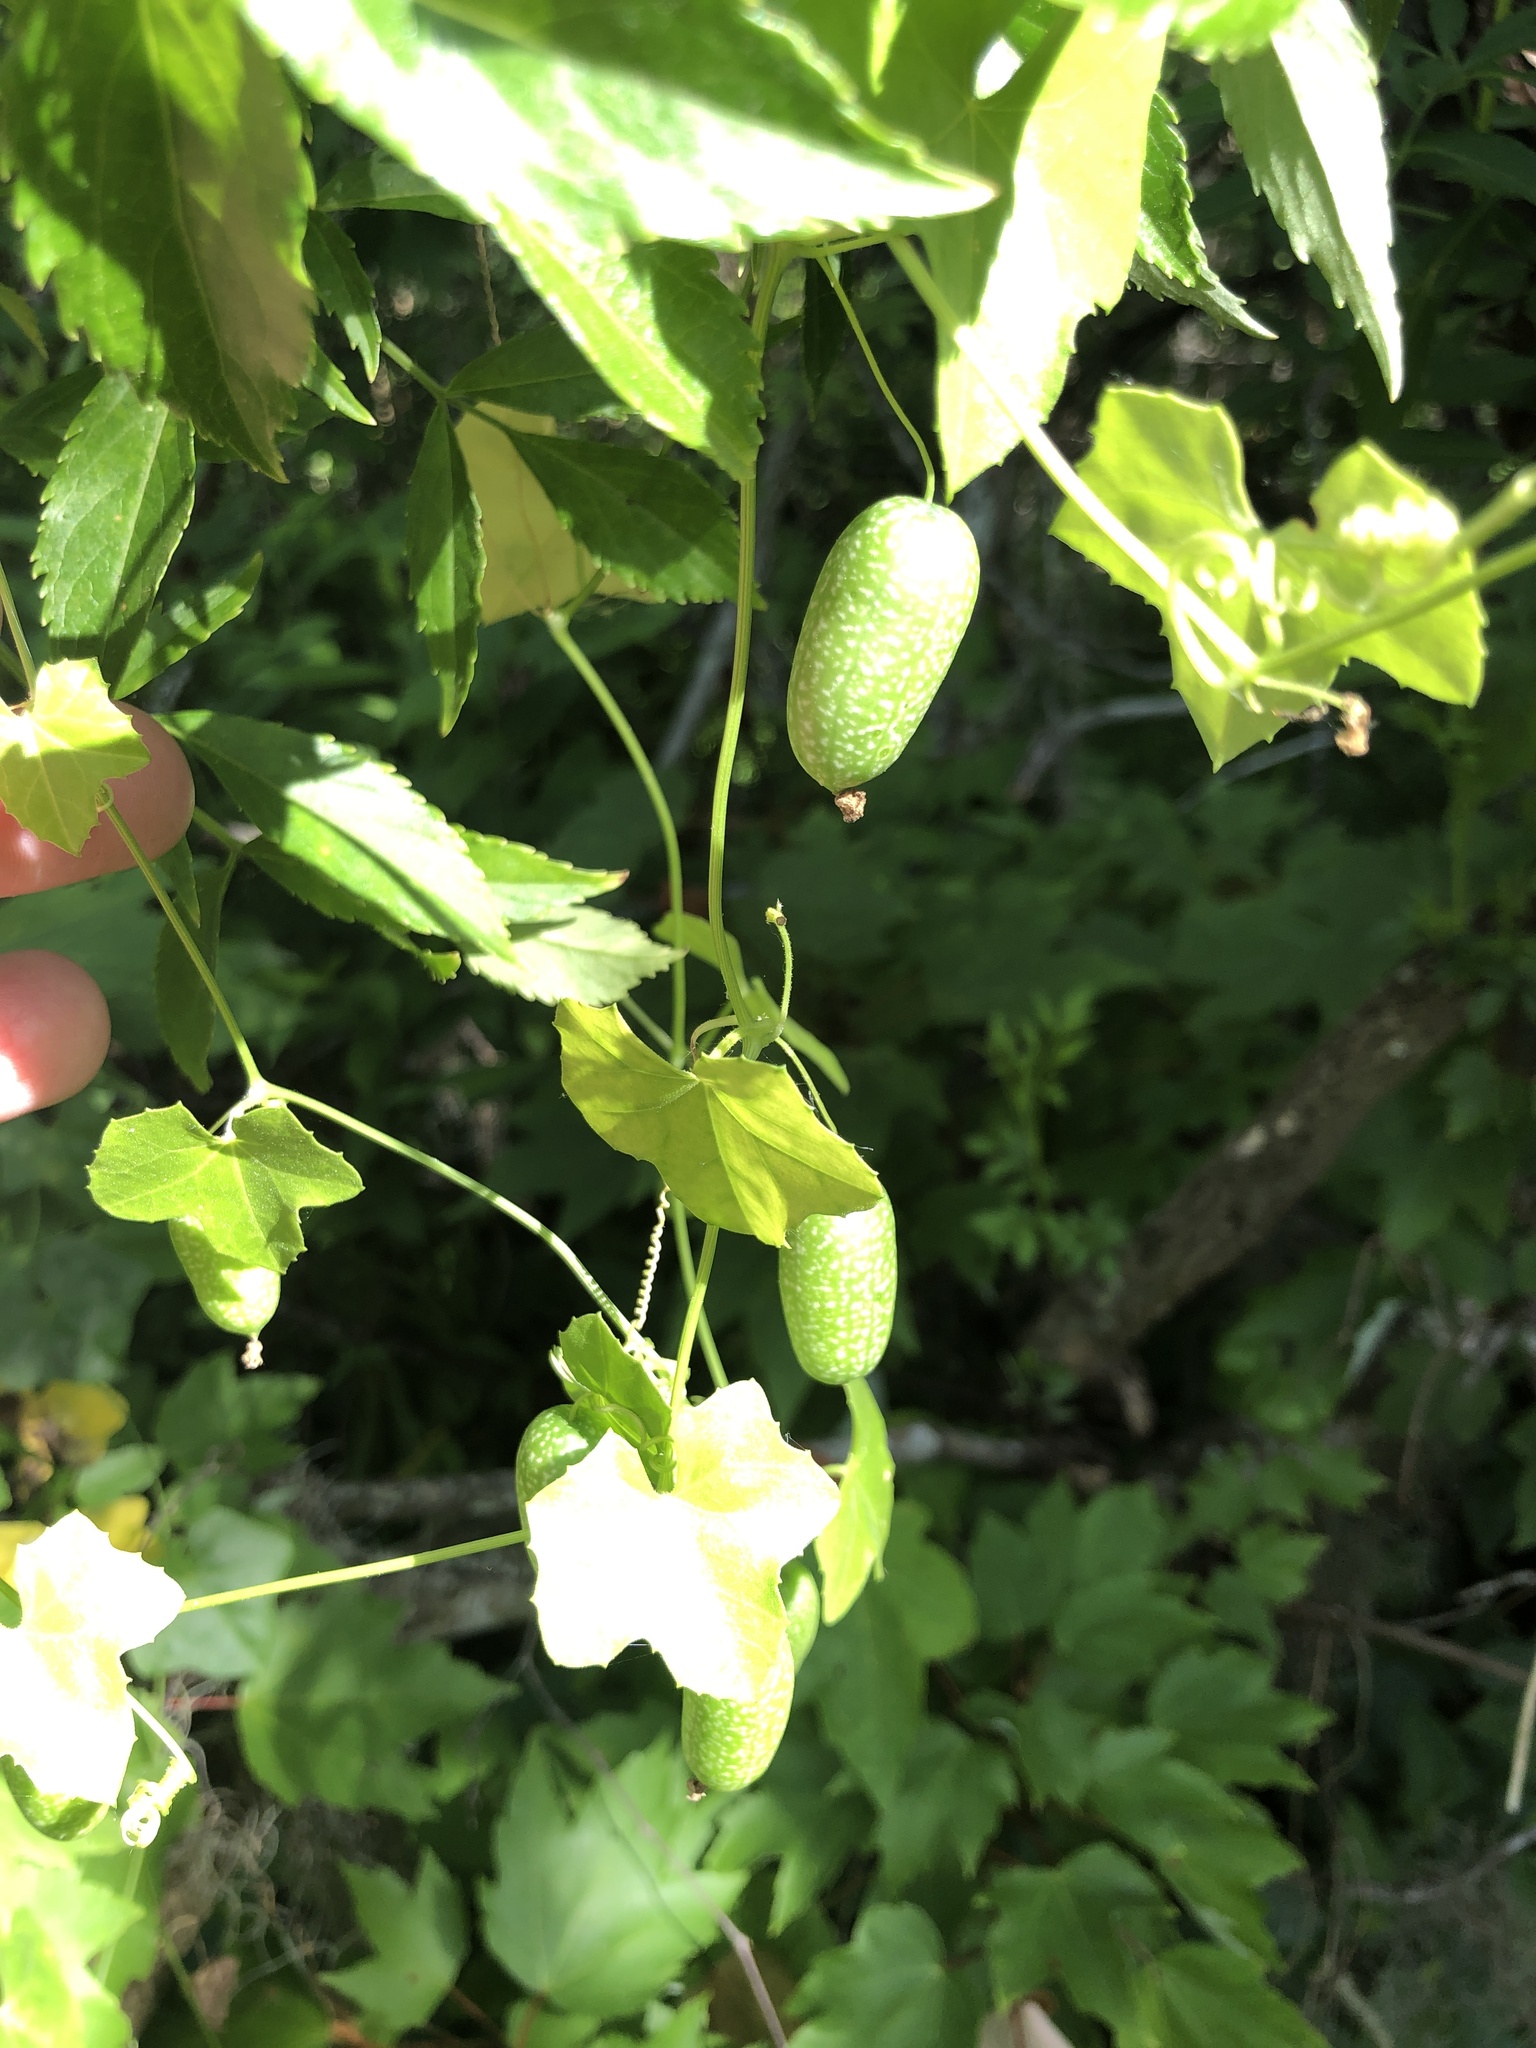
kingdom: Plantae
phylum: Tracheophyta
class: Magnoliopsida
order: Cucurbitales
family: Cucurbitaceae
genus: Melothria
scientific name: Melothria pendula
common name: Creeping-cucumber
